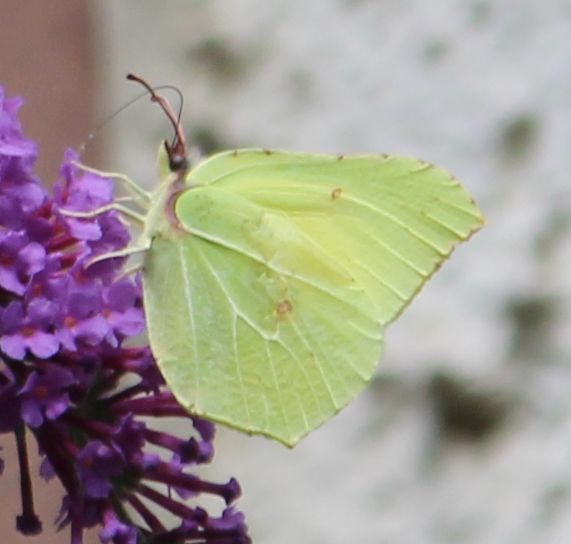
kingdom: Animalia
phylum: Arthropoda
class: Insecta
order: Lepidoptera
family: Pieridae
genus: Gonepteryx
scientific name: Gonepteryx rhamni
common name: Brimstone
